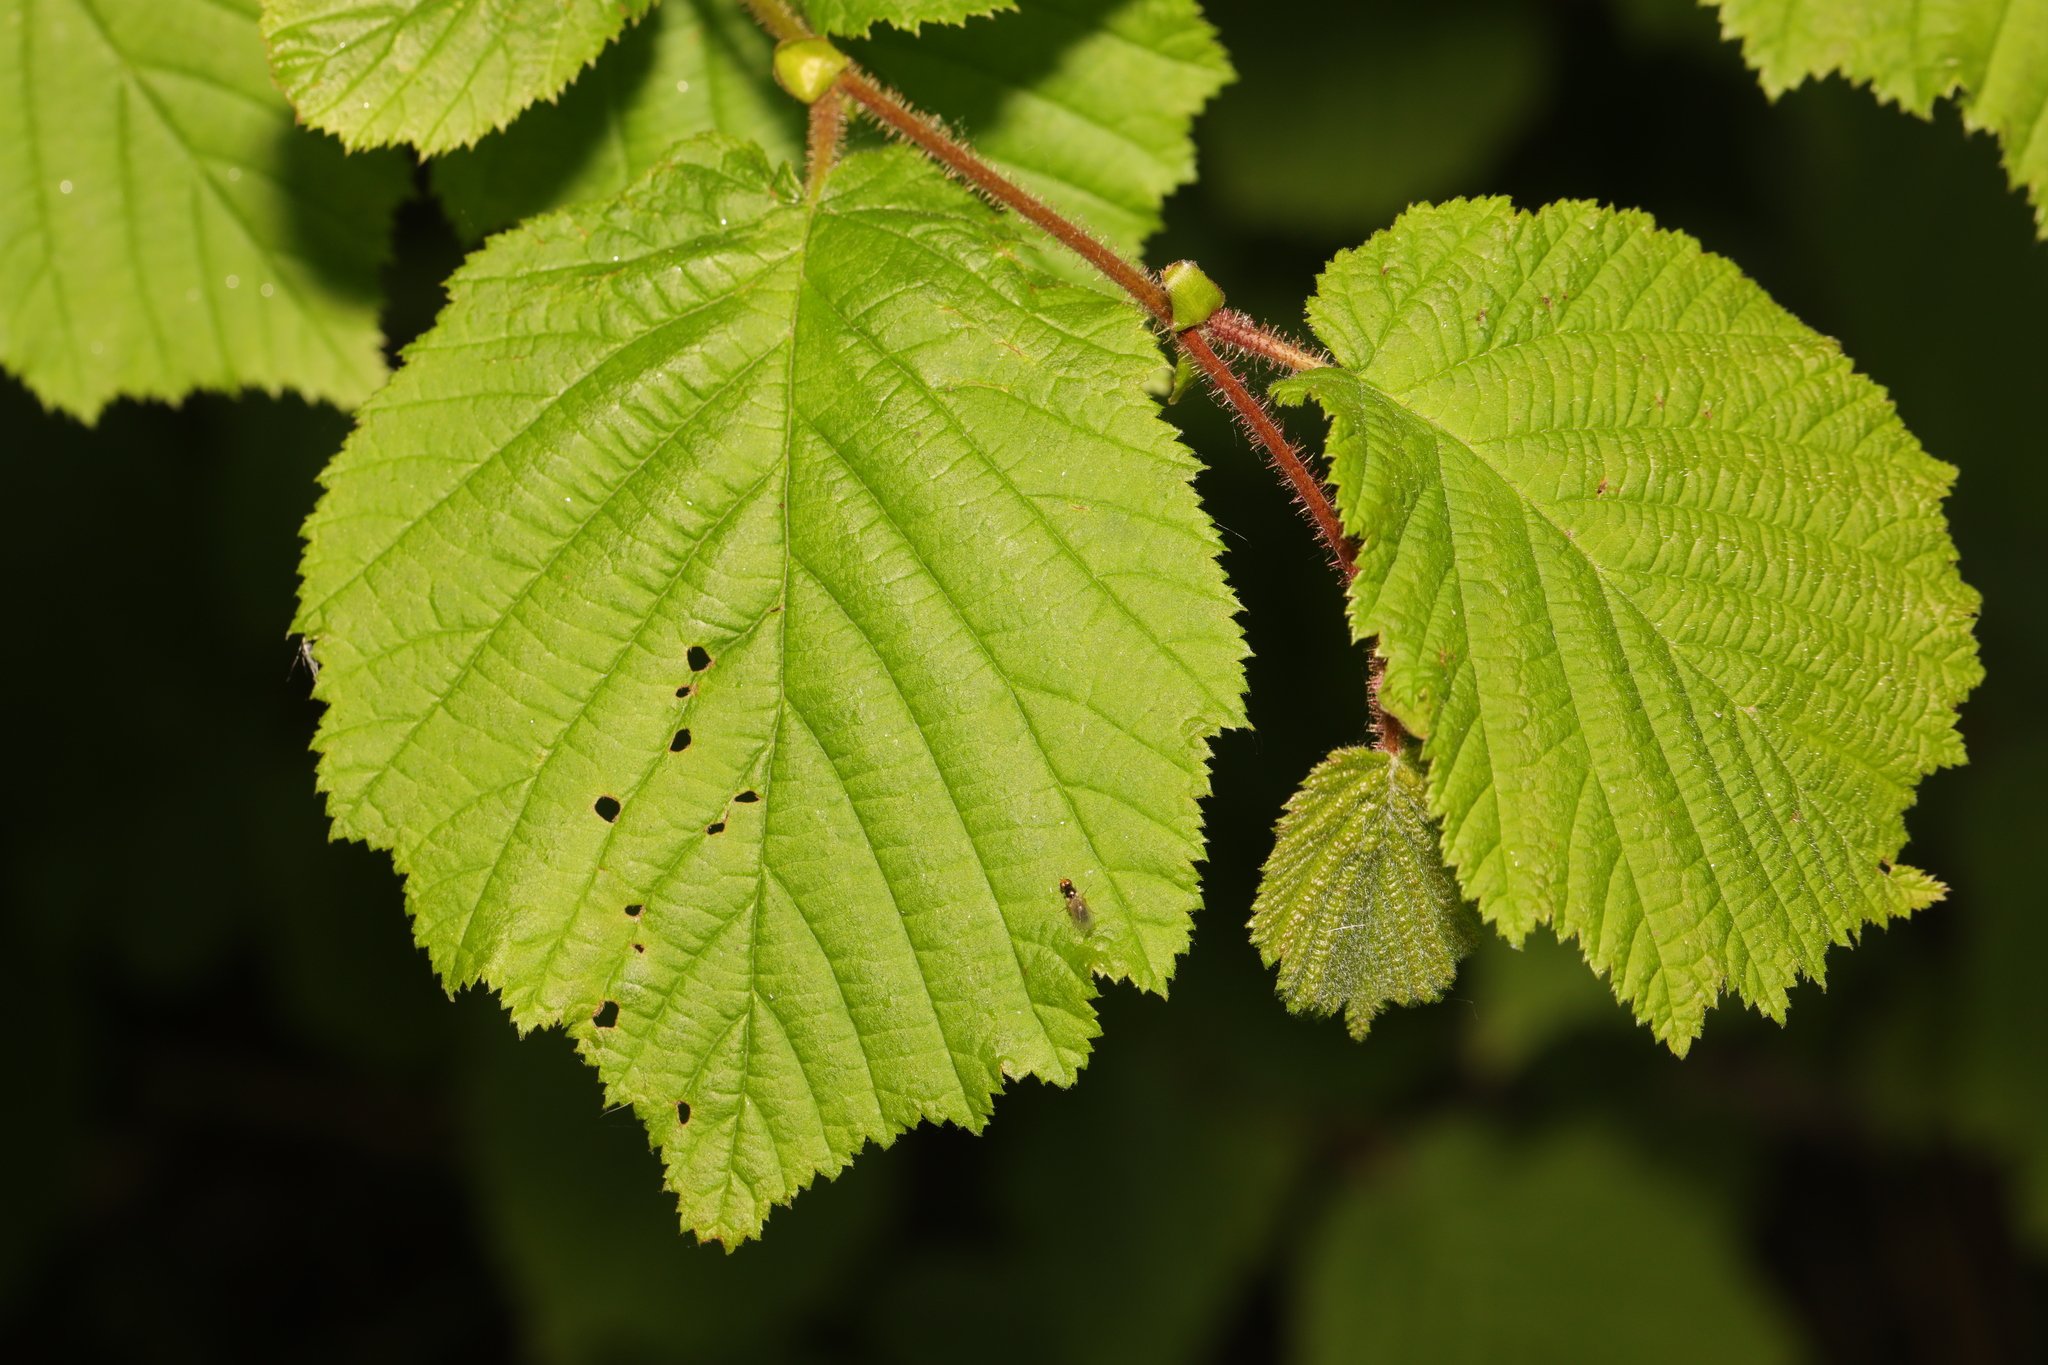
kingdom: Plantae
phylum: Tracheophyta
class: Magnoliopsida
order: Fagales
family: Betulaceae
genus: Corylus
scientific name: Corylus avellana
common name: European hazel
